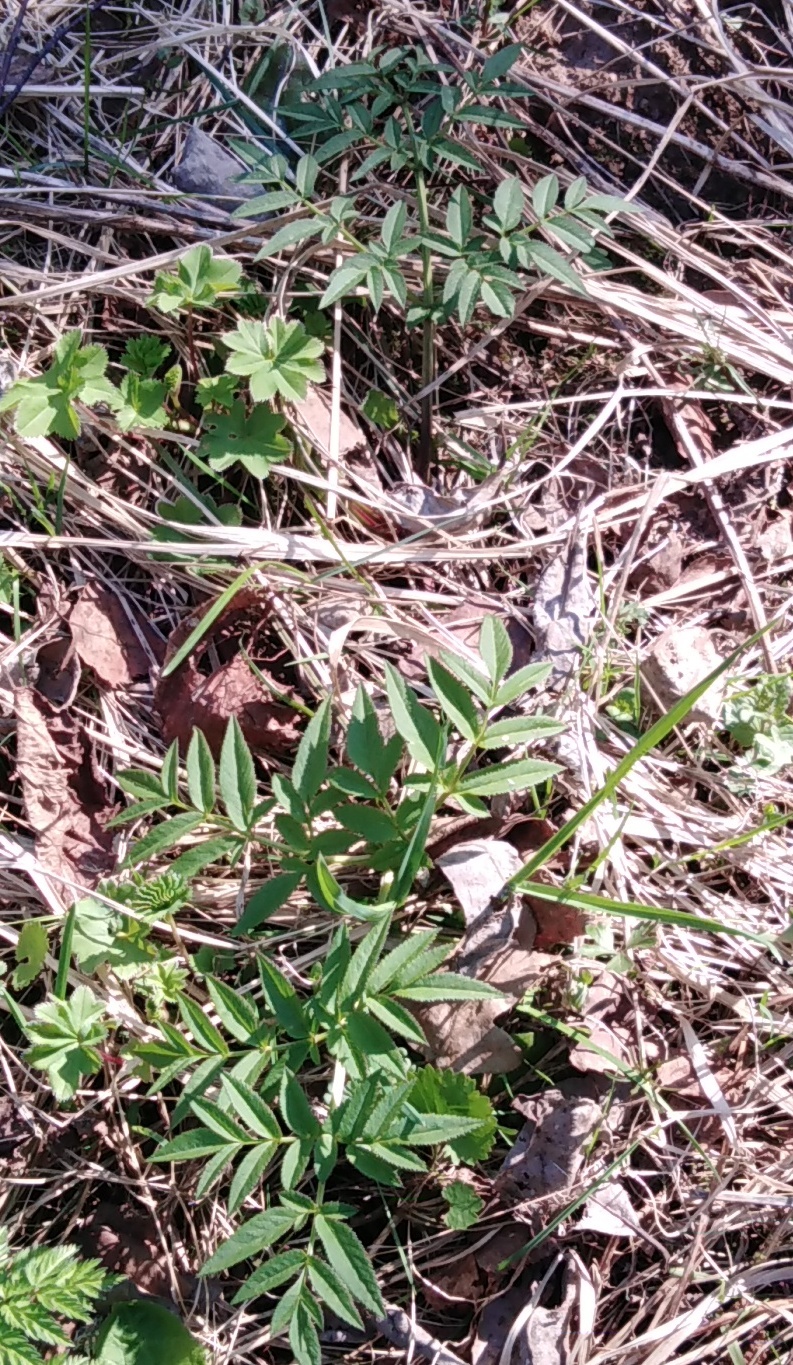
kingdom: Plantae
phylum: Tracheophyta
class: Magnoliopsida
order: Apiales
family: Apiaceae
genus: Angelica
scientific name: Angelica sylvestris
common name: Wild angelica
